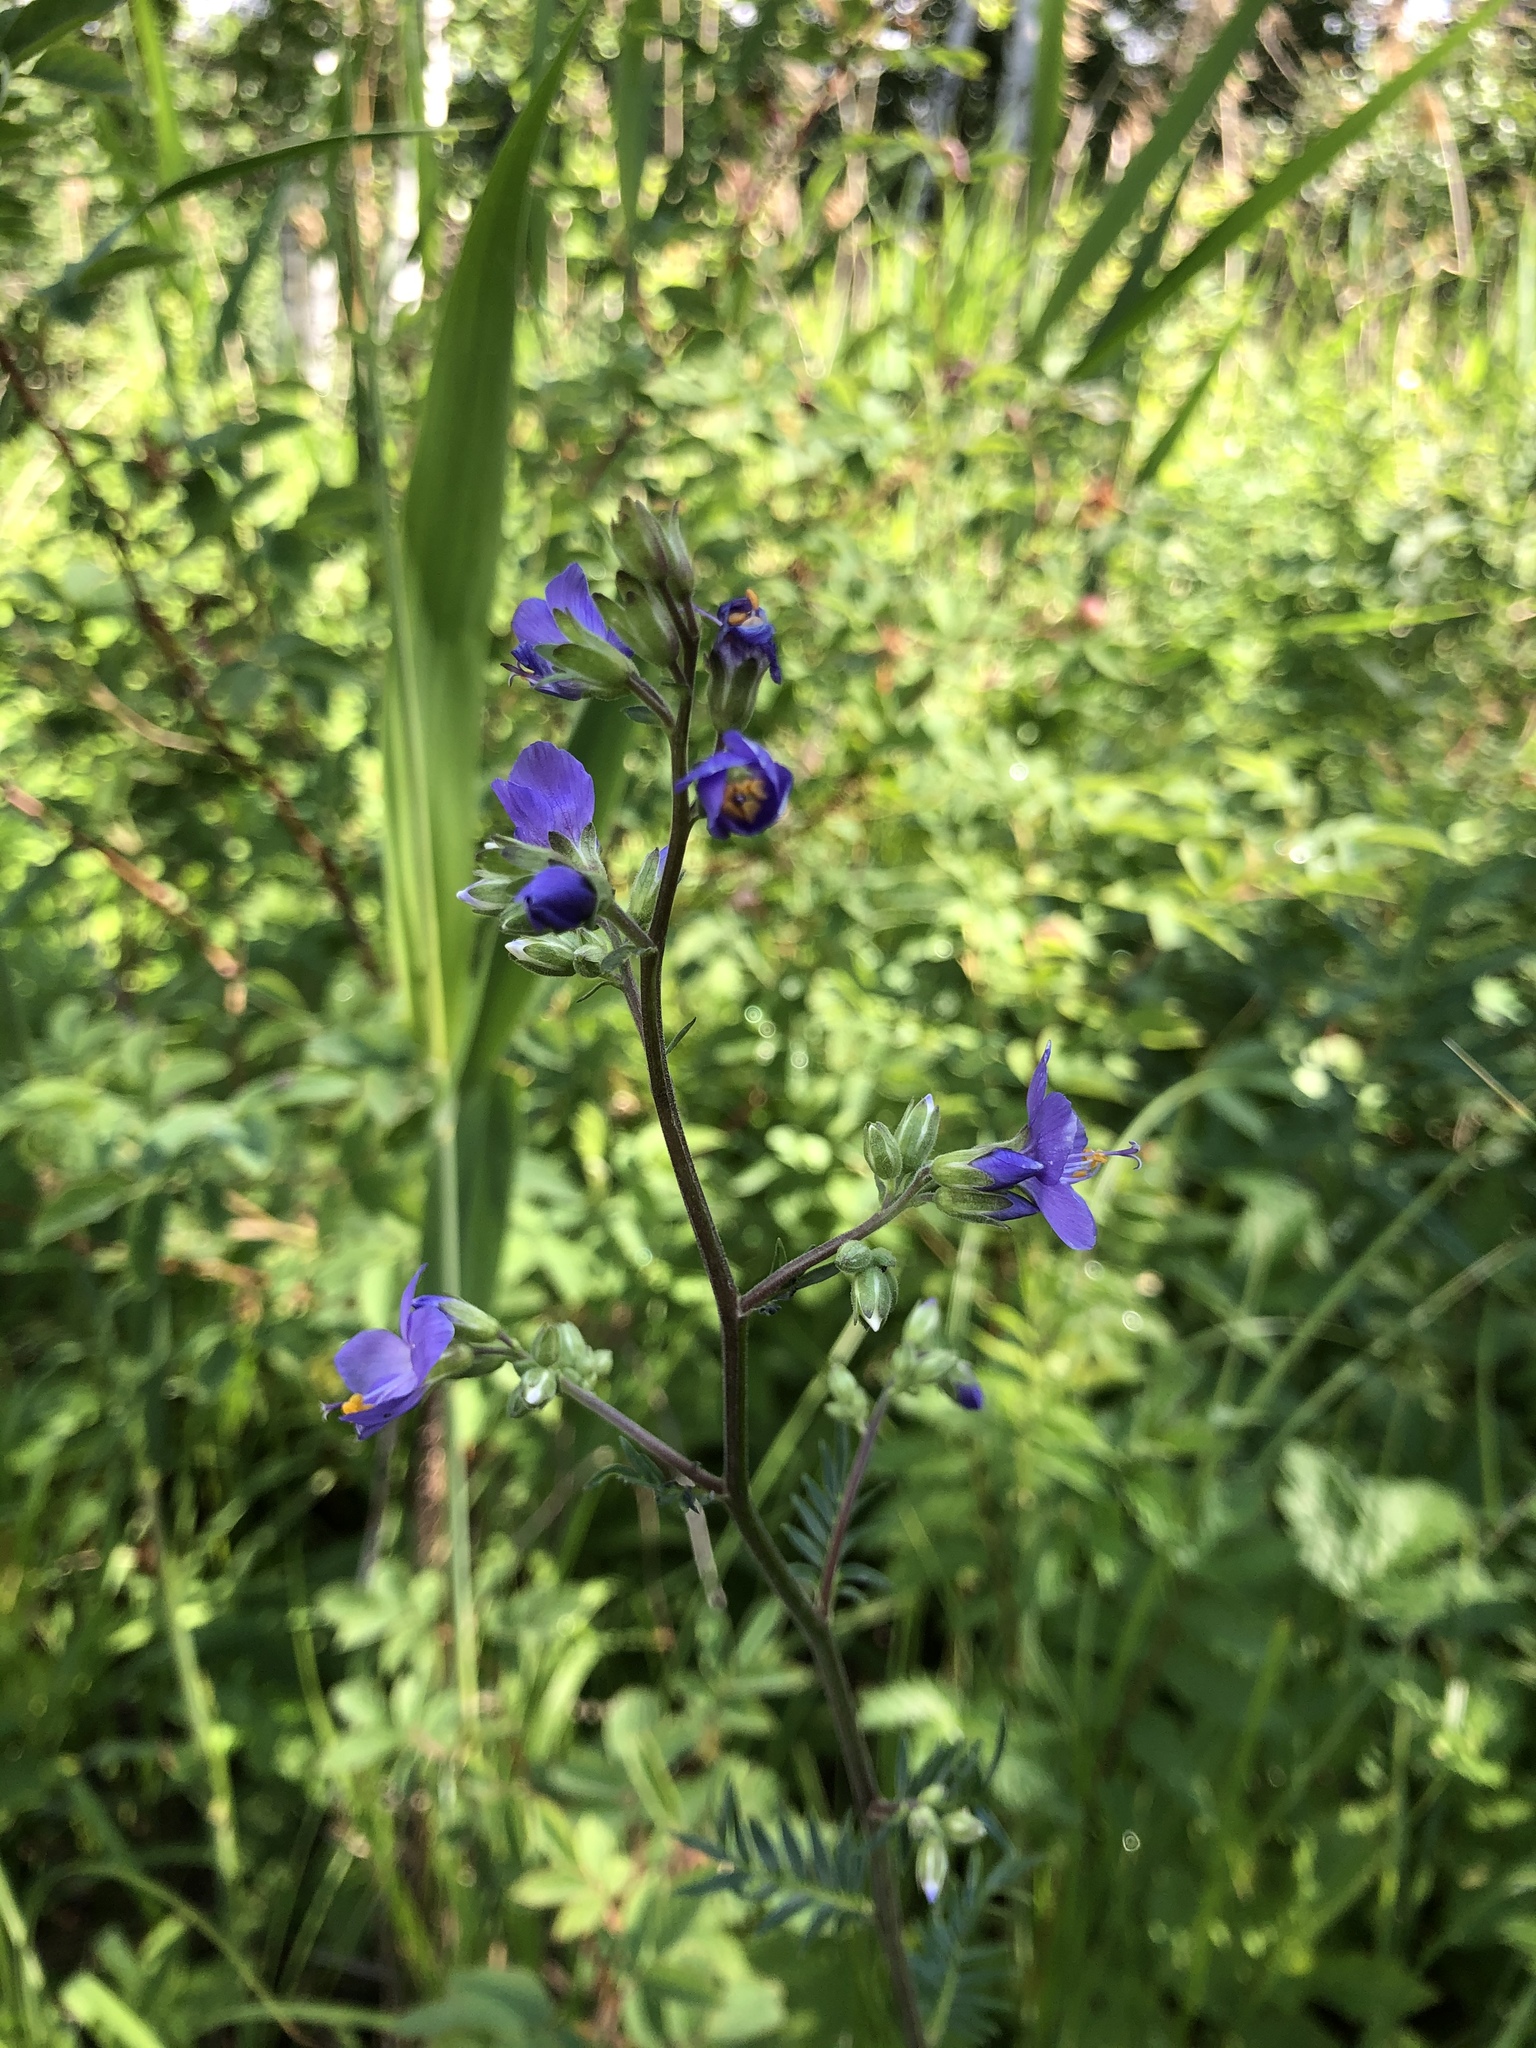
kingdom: Plantae
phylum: Tracheophyta
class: Magnoliopsida
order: Ericales
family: Polemoniaceae
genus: Polemonium
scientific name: Polemonium caeruleum
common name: Jacob's-ladder
